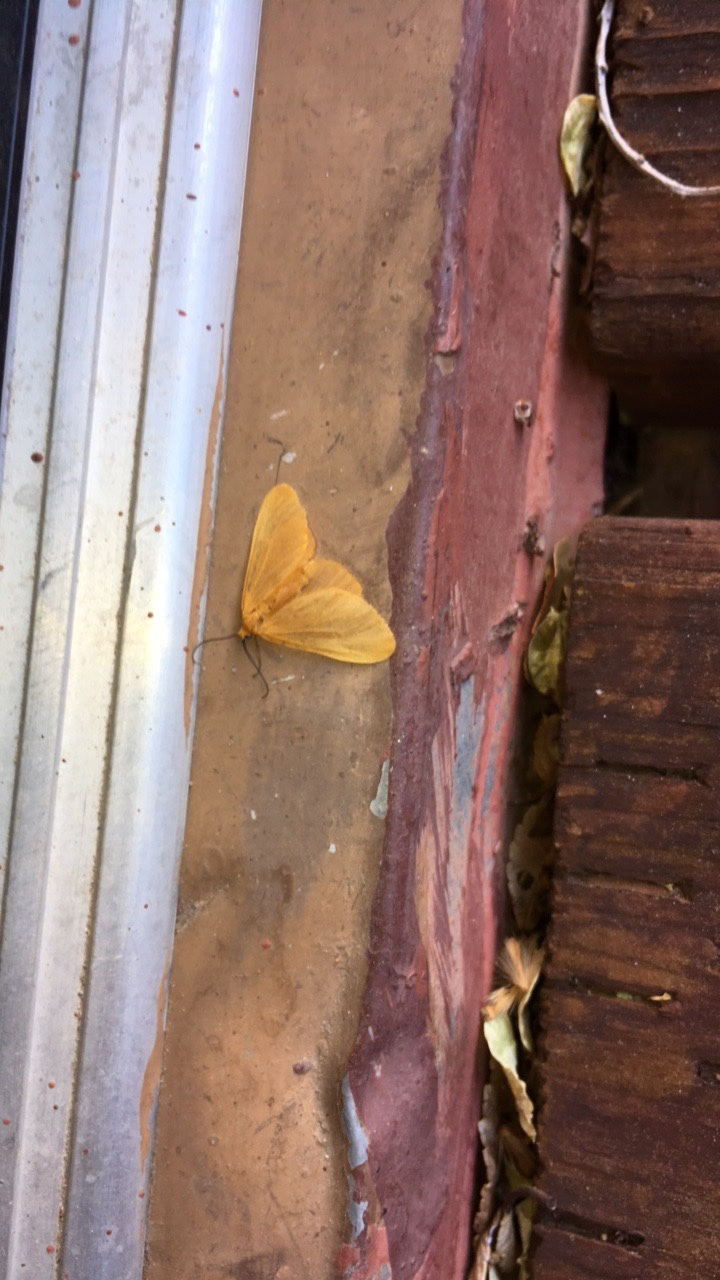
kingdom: Animalia
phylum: Arthropoda
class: Insecta
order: Lepidoptera
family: Geometridae
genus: Eubaphe
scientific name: Eubaphe unicolor
